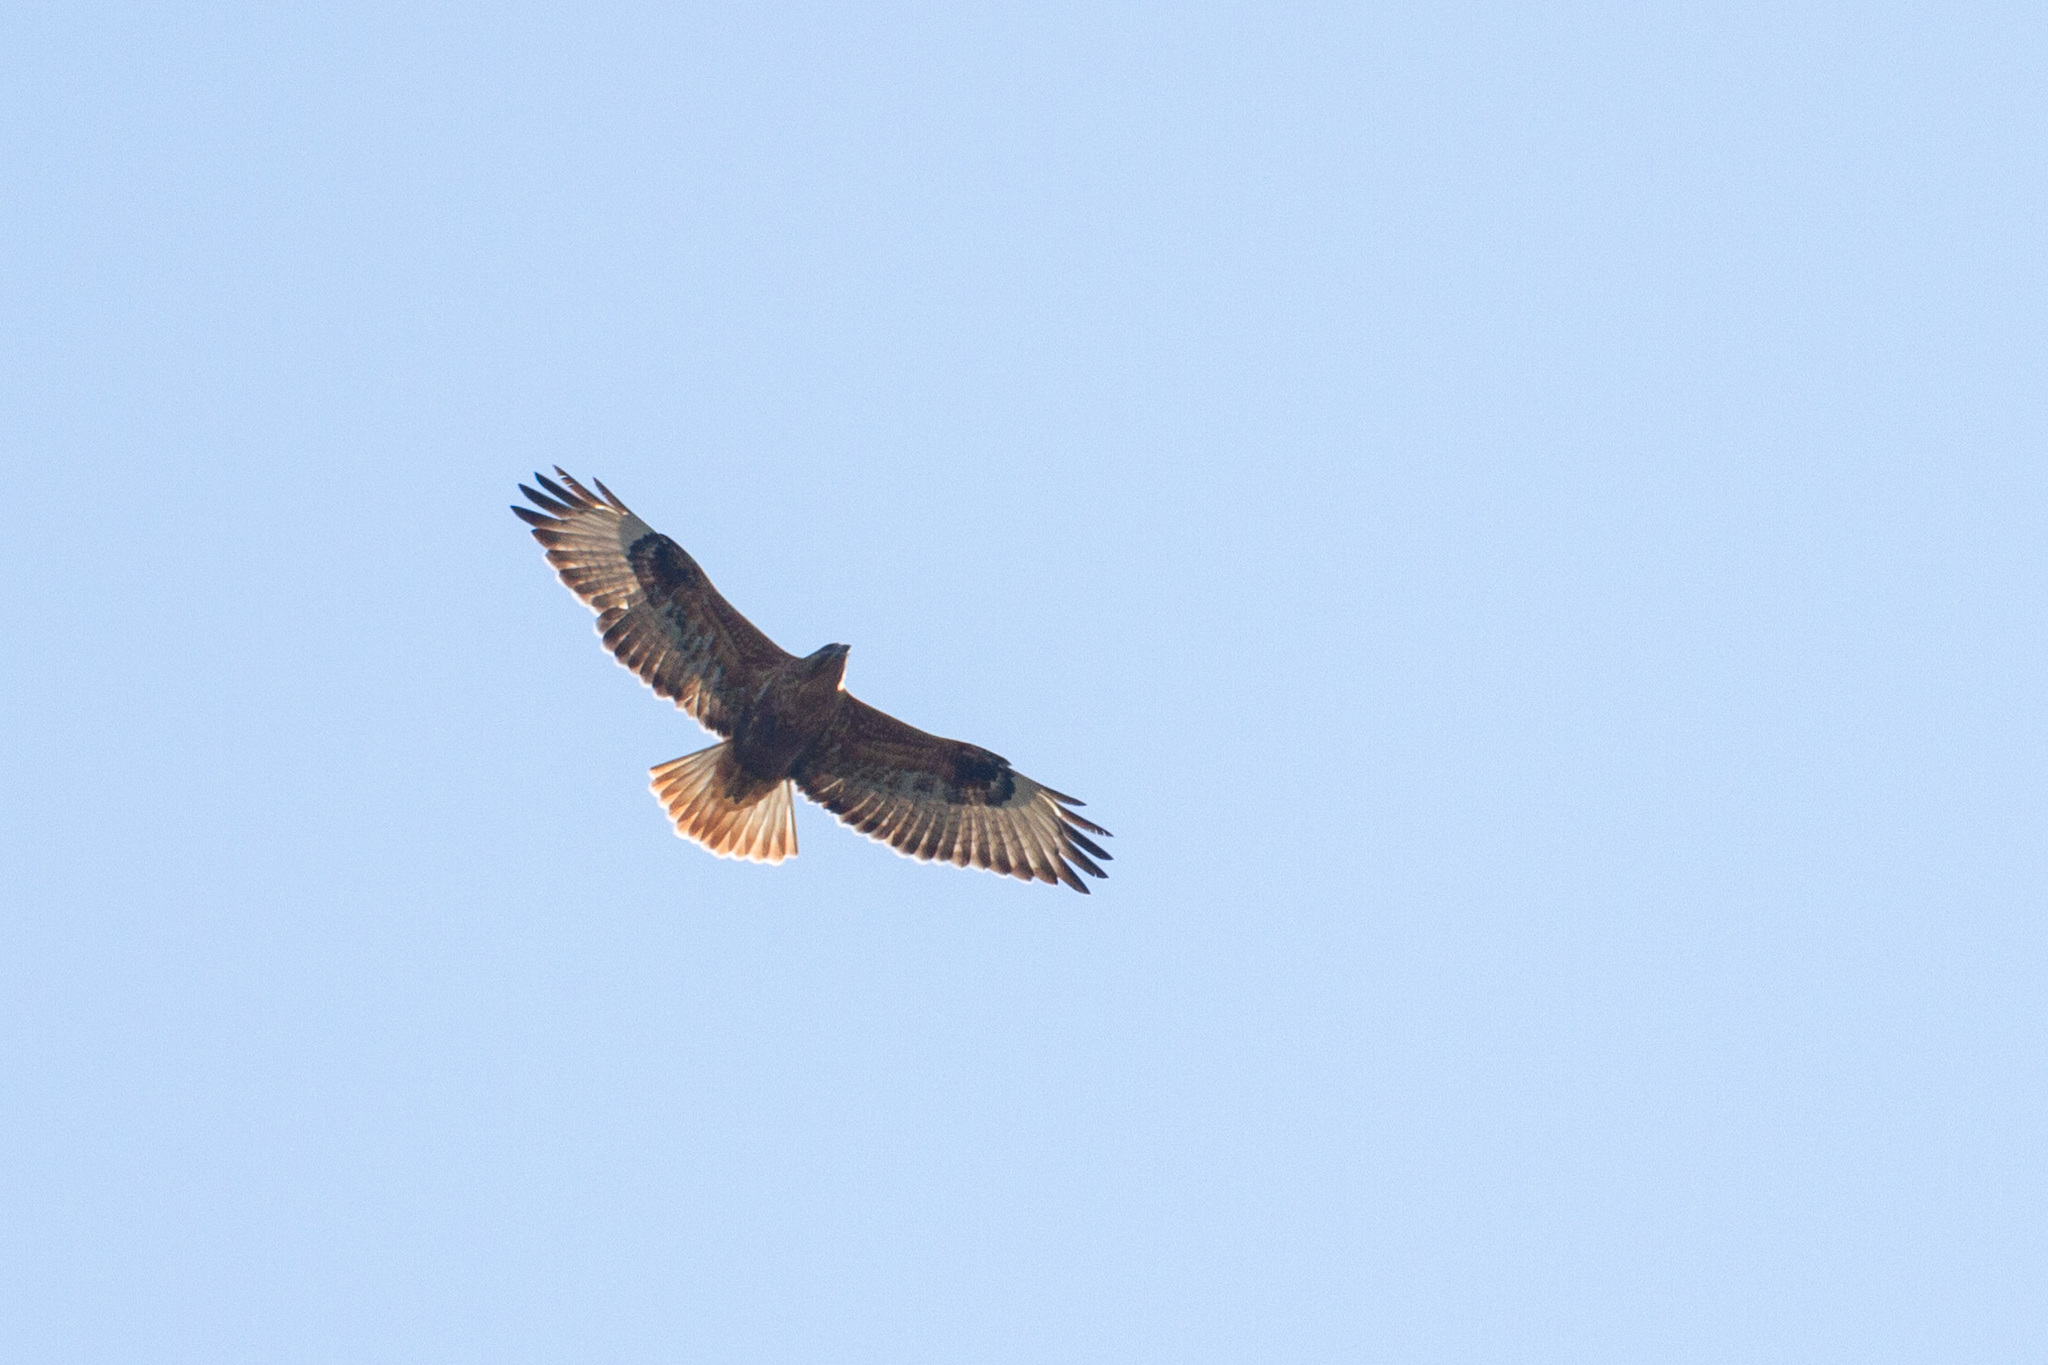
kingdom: Animalia
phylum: Chordata
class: Aves
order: Accipitriformes
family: Accipitridae
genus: Buteo
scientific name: Buteo rufinus
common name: Long-legged buzzard
